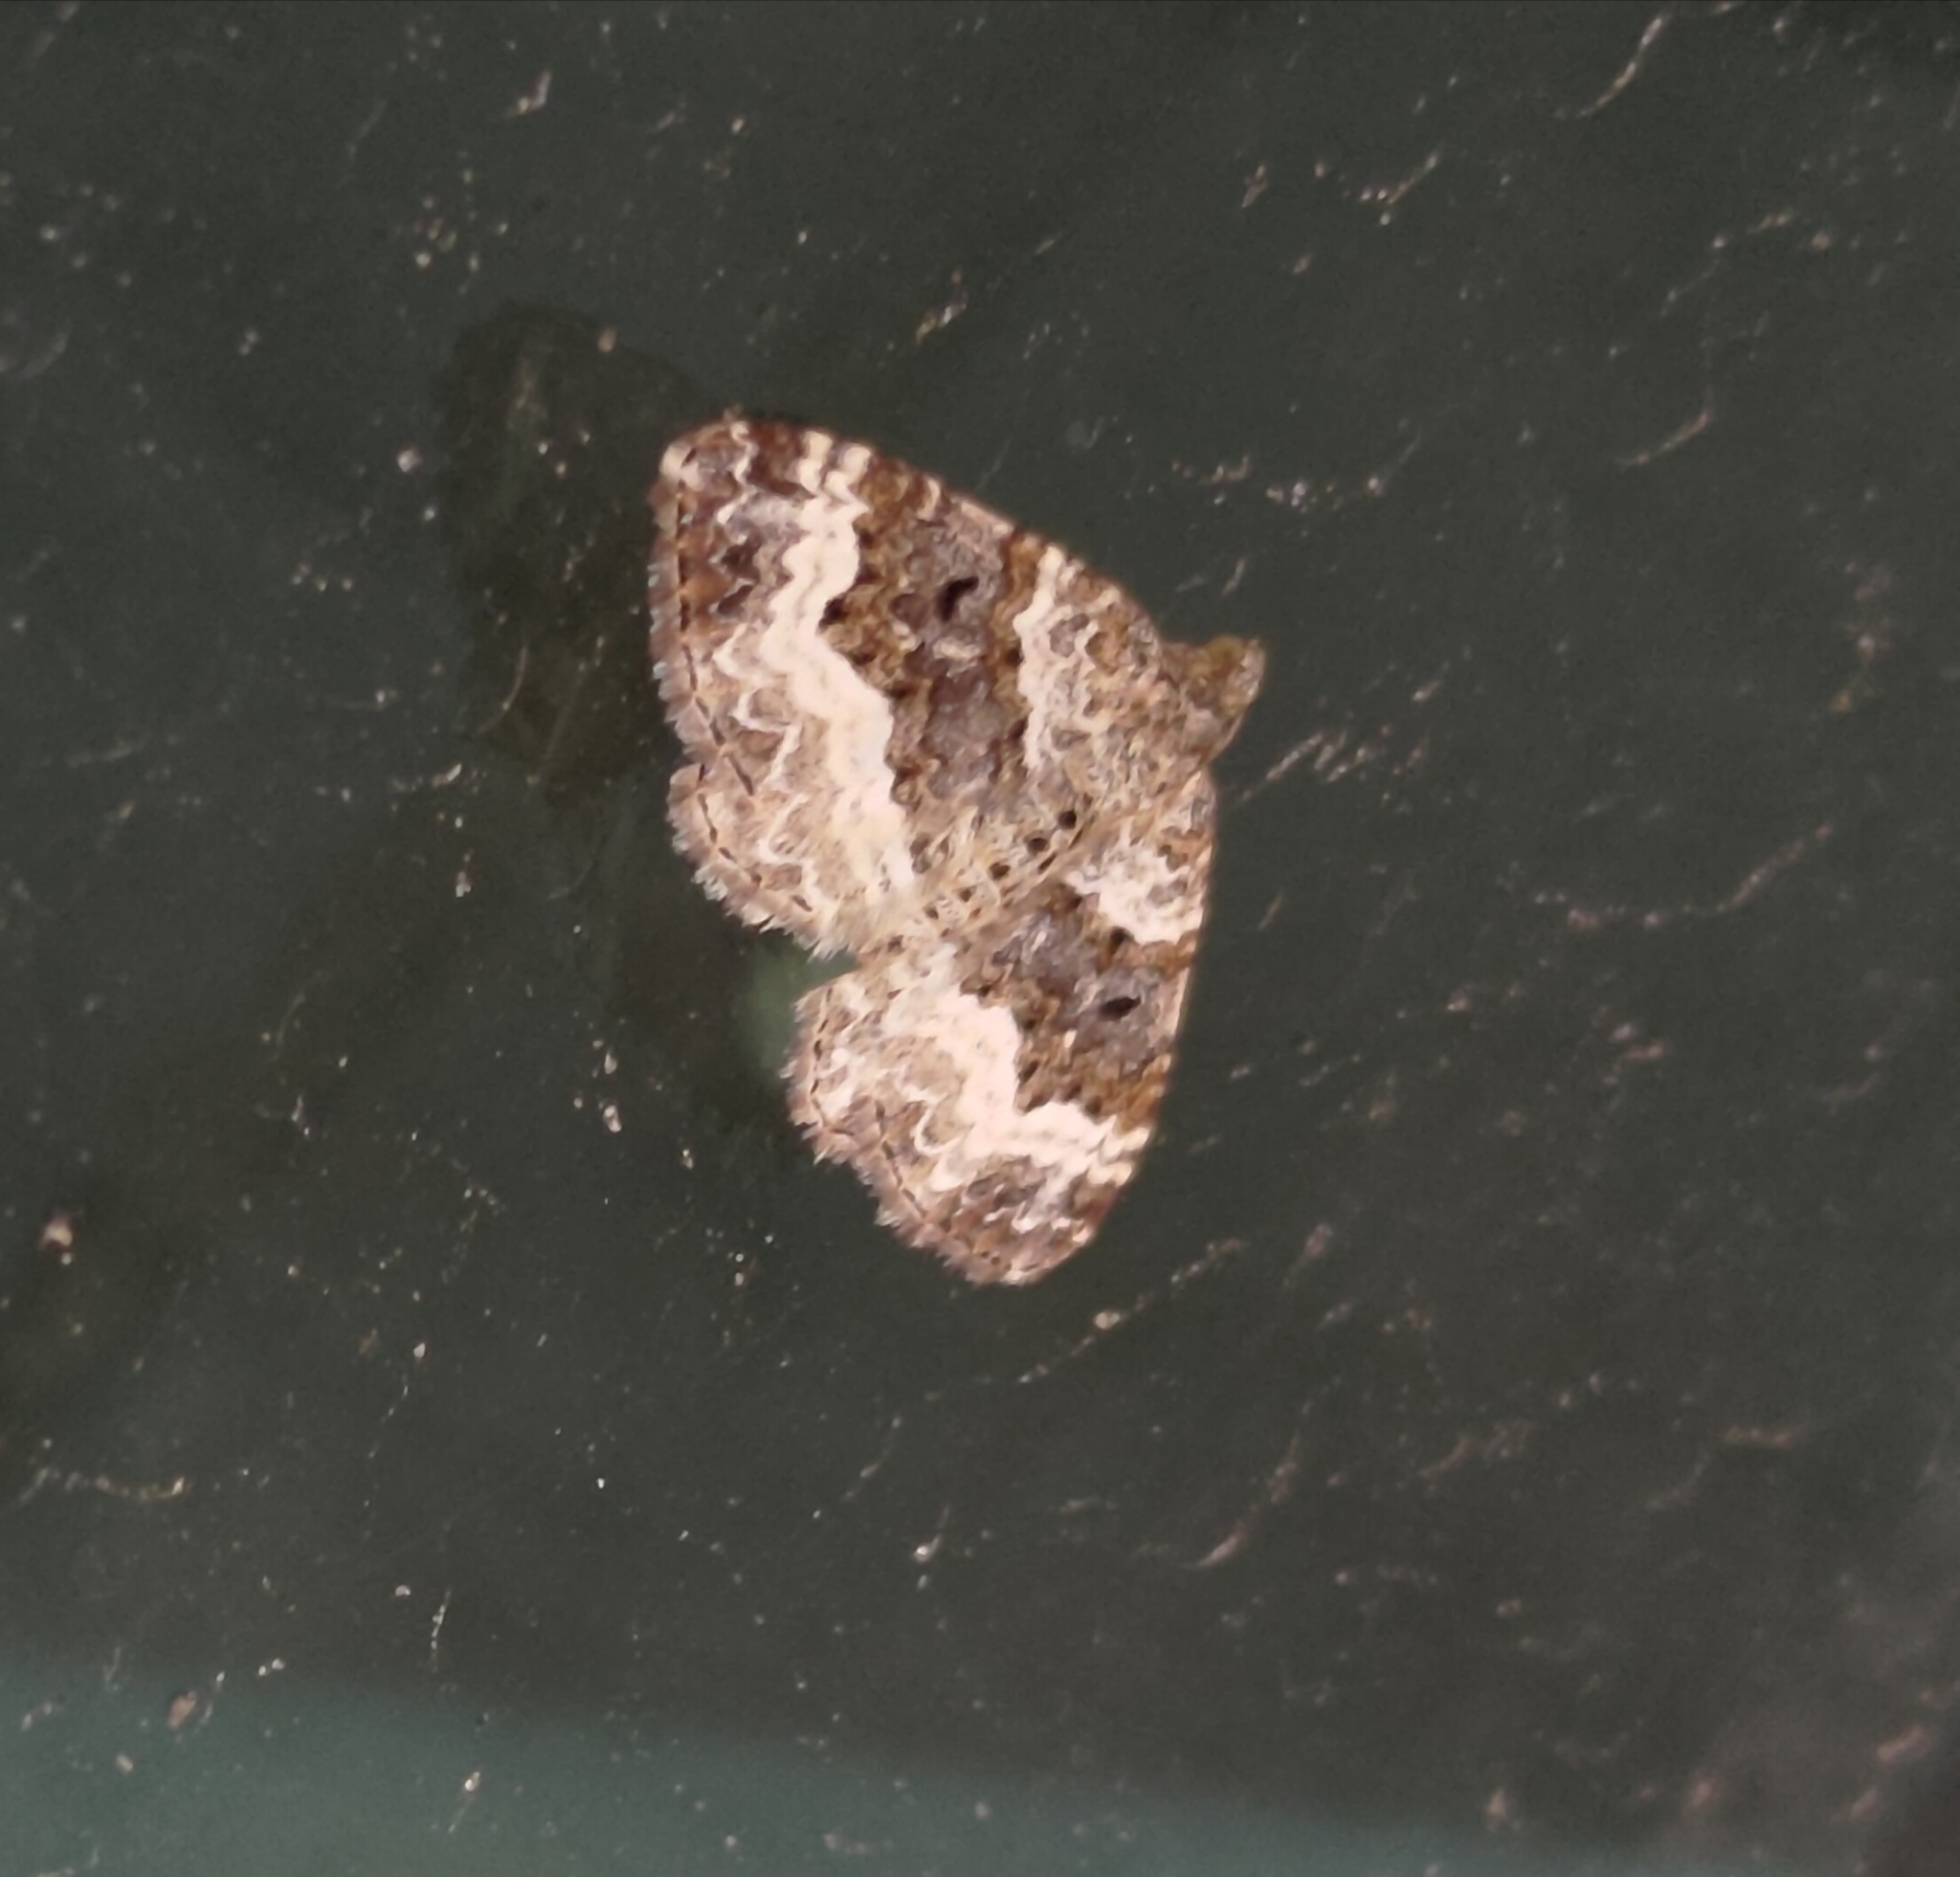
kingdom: Animalia
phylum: Arthropoda
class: Insecta
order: Lepidoptera
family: Geometridae
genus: Epirrhoe
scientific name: Epirrhoe alternata
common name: Common carpet
